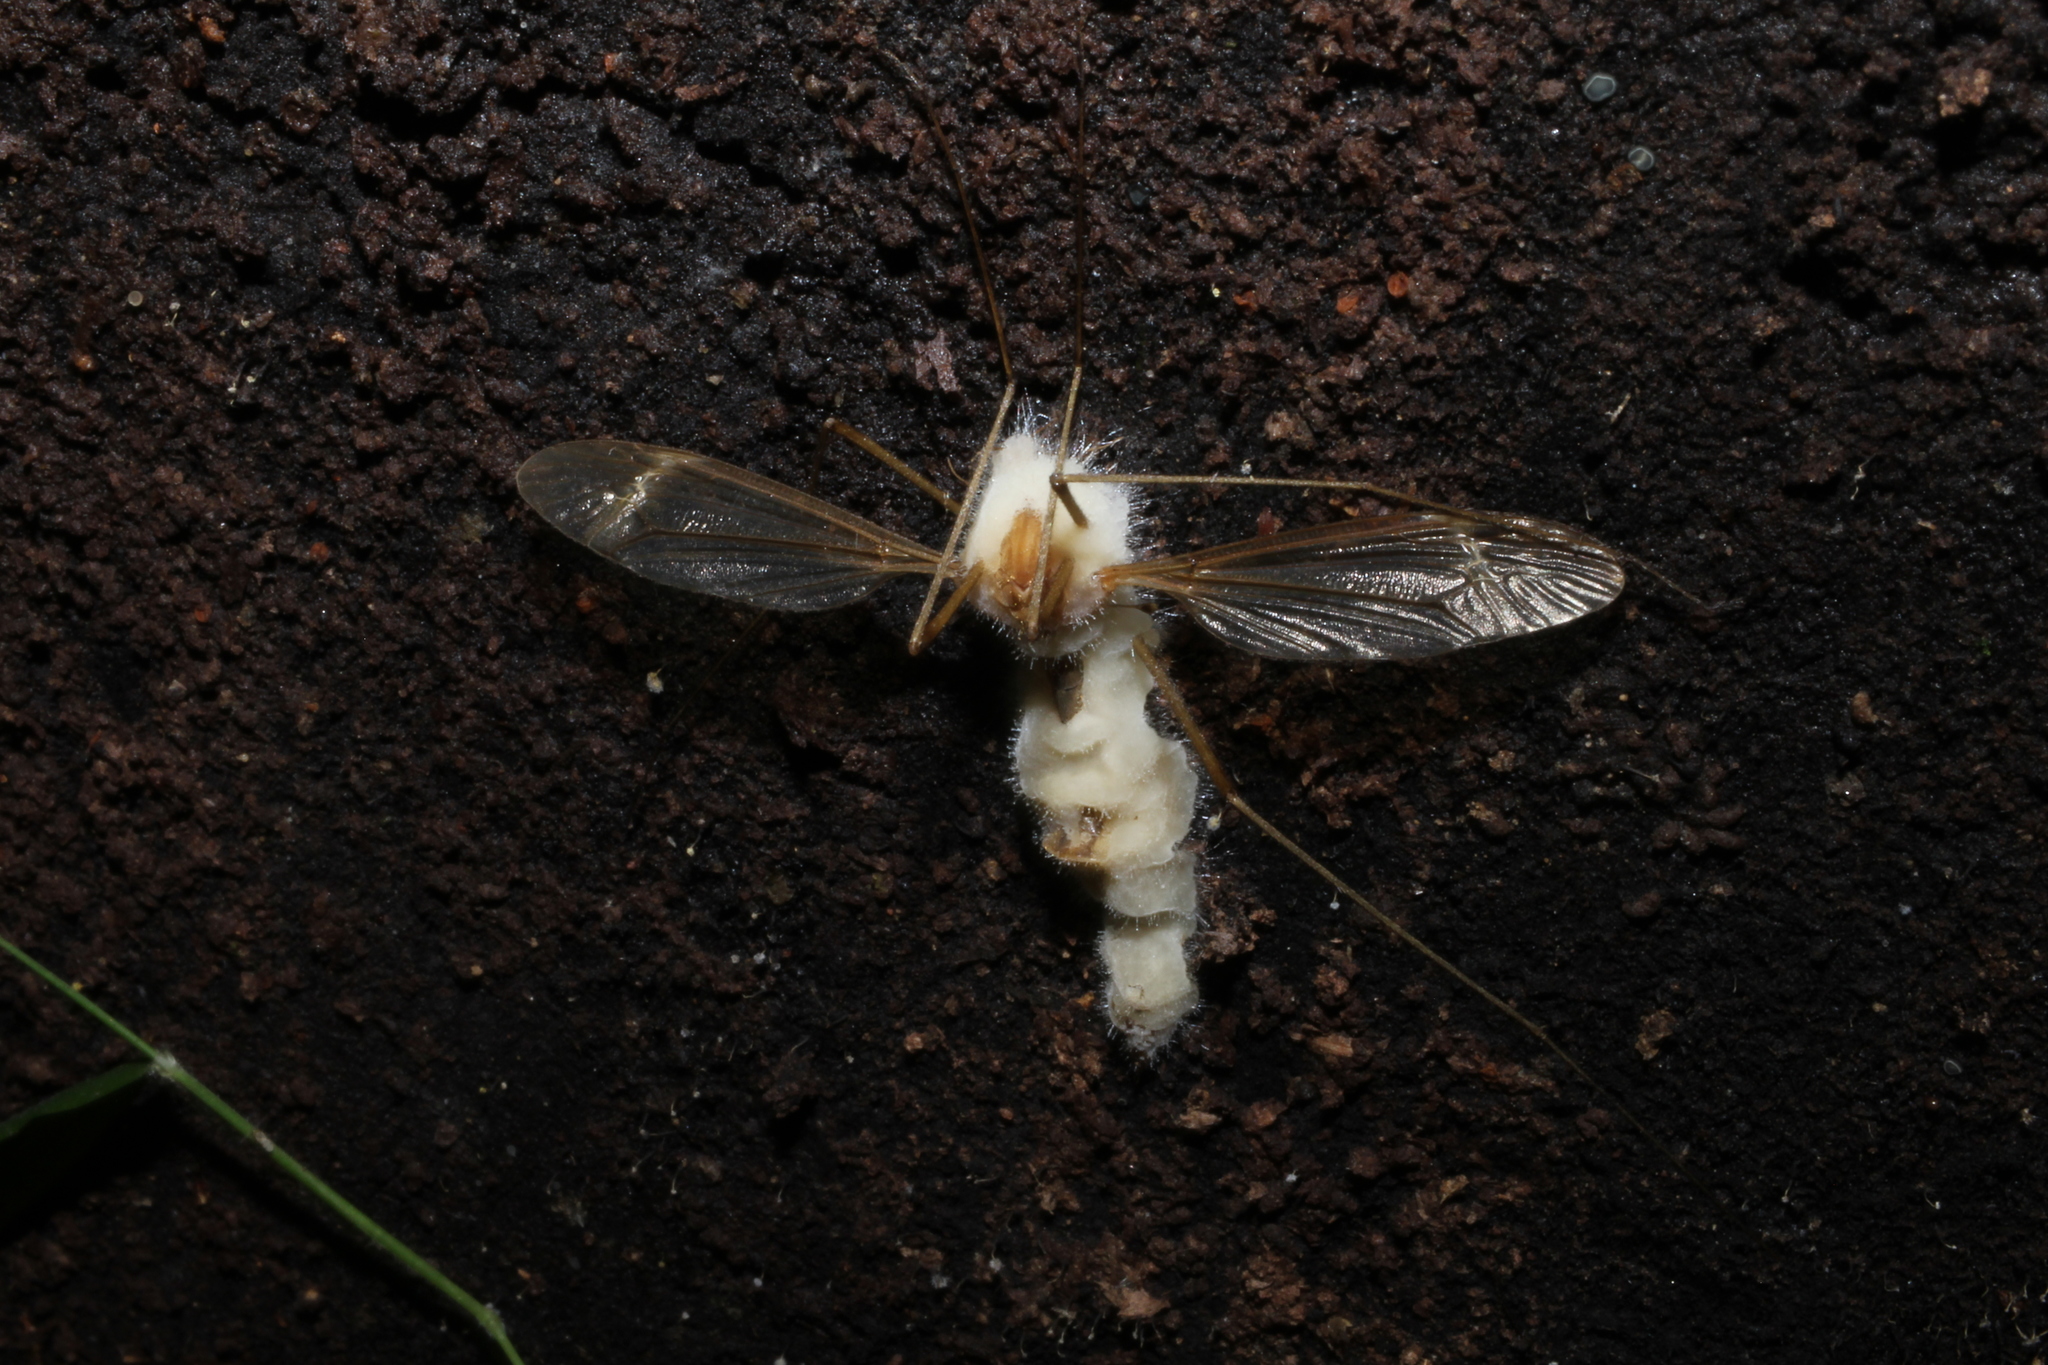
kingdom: Fungi
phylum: Entomophthoromycota
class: Entomophthoromycetes
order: Entomophthorales
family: Entomophthoraceae
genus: Erynia
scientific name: Erynia sepulchralis
